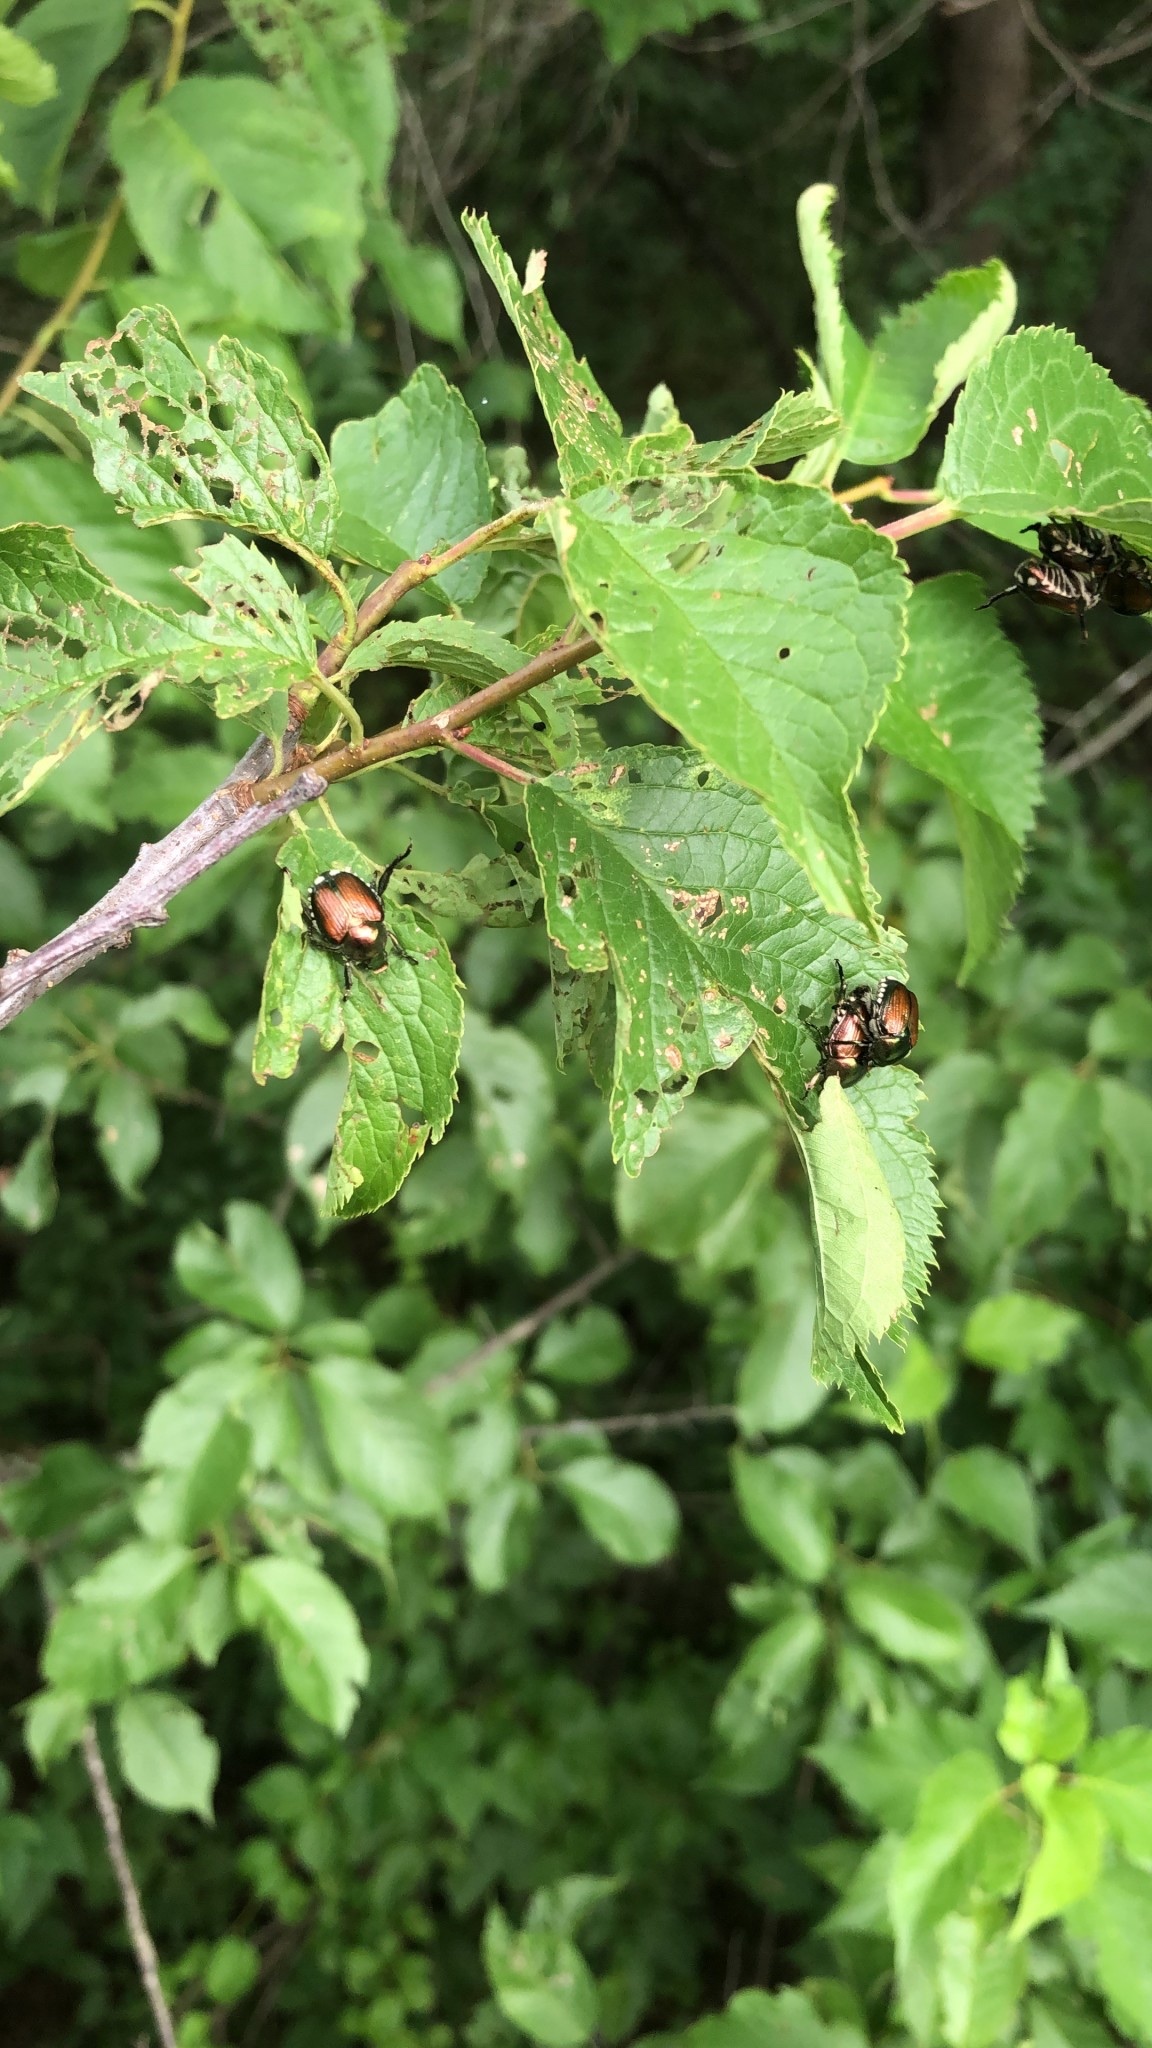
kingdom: Animalia
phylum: Arthropoda
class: Insecta
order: Coleoptera
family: Scarabaeidae
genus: Popillia
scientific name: Popillia japonica
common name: Japanese beetle
